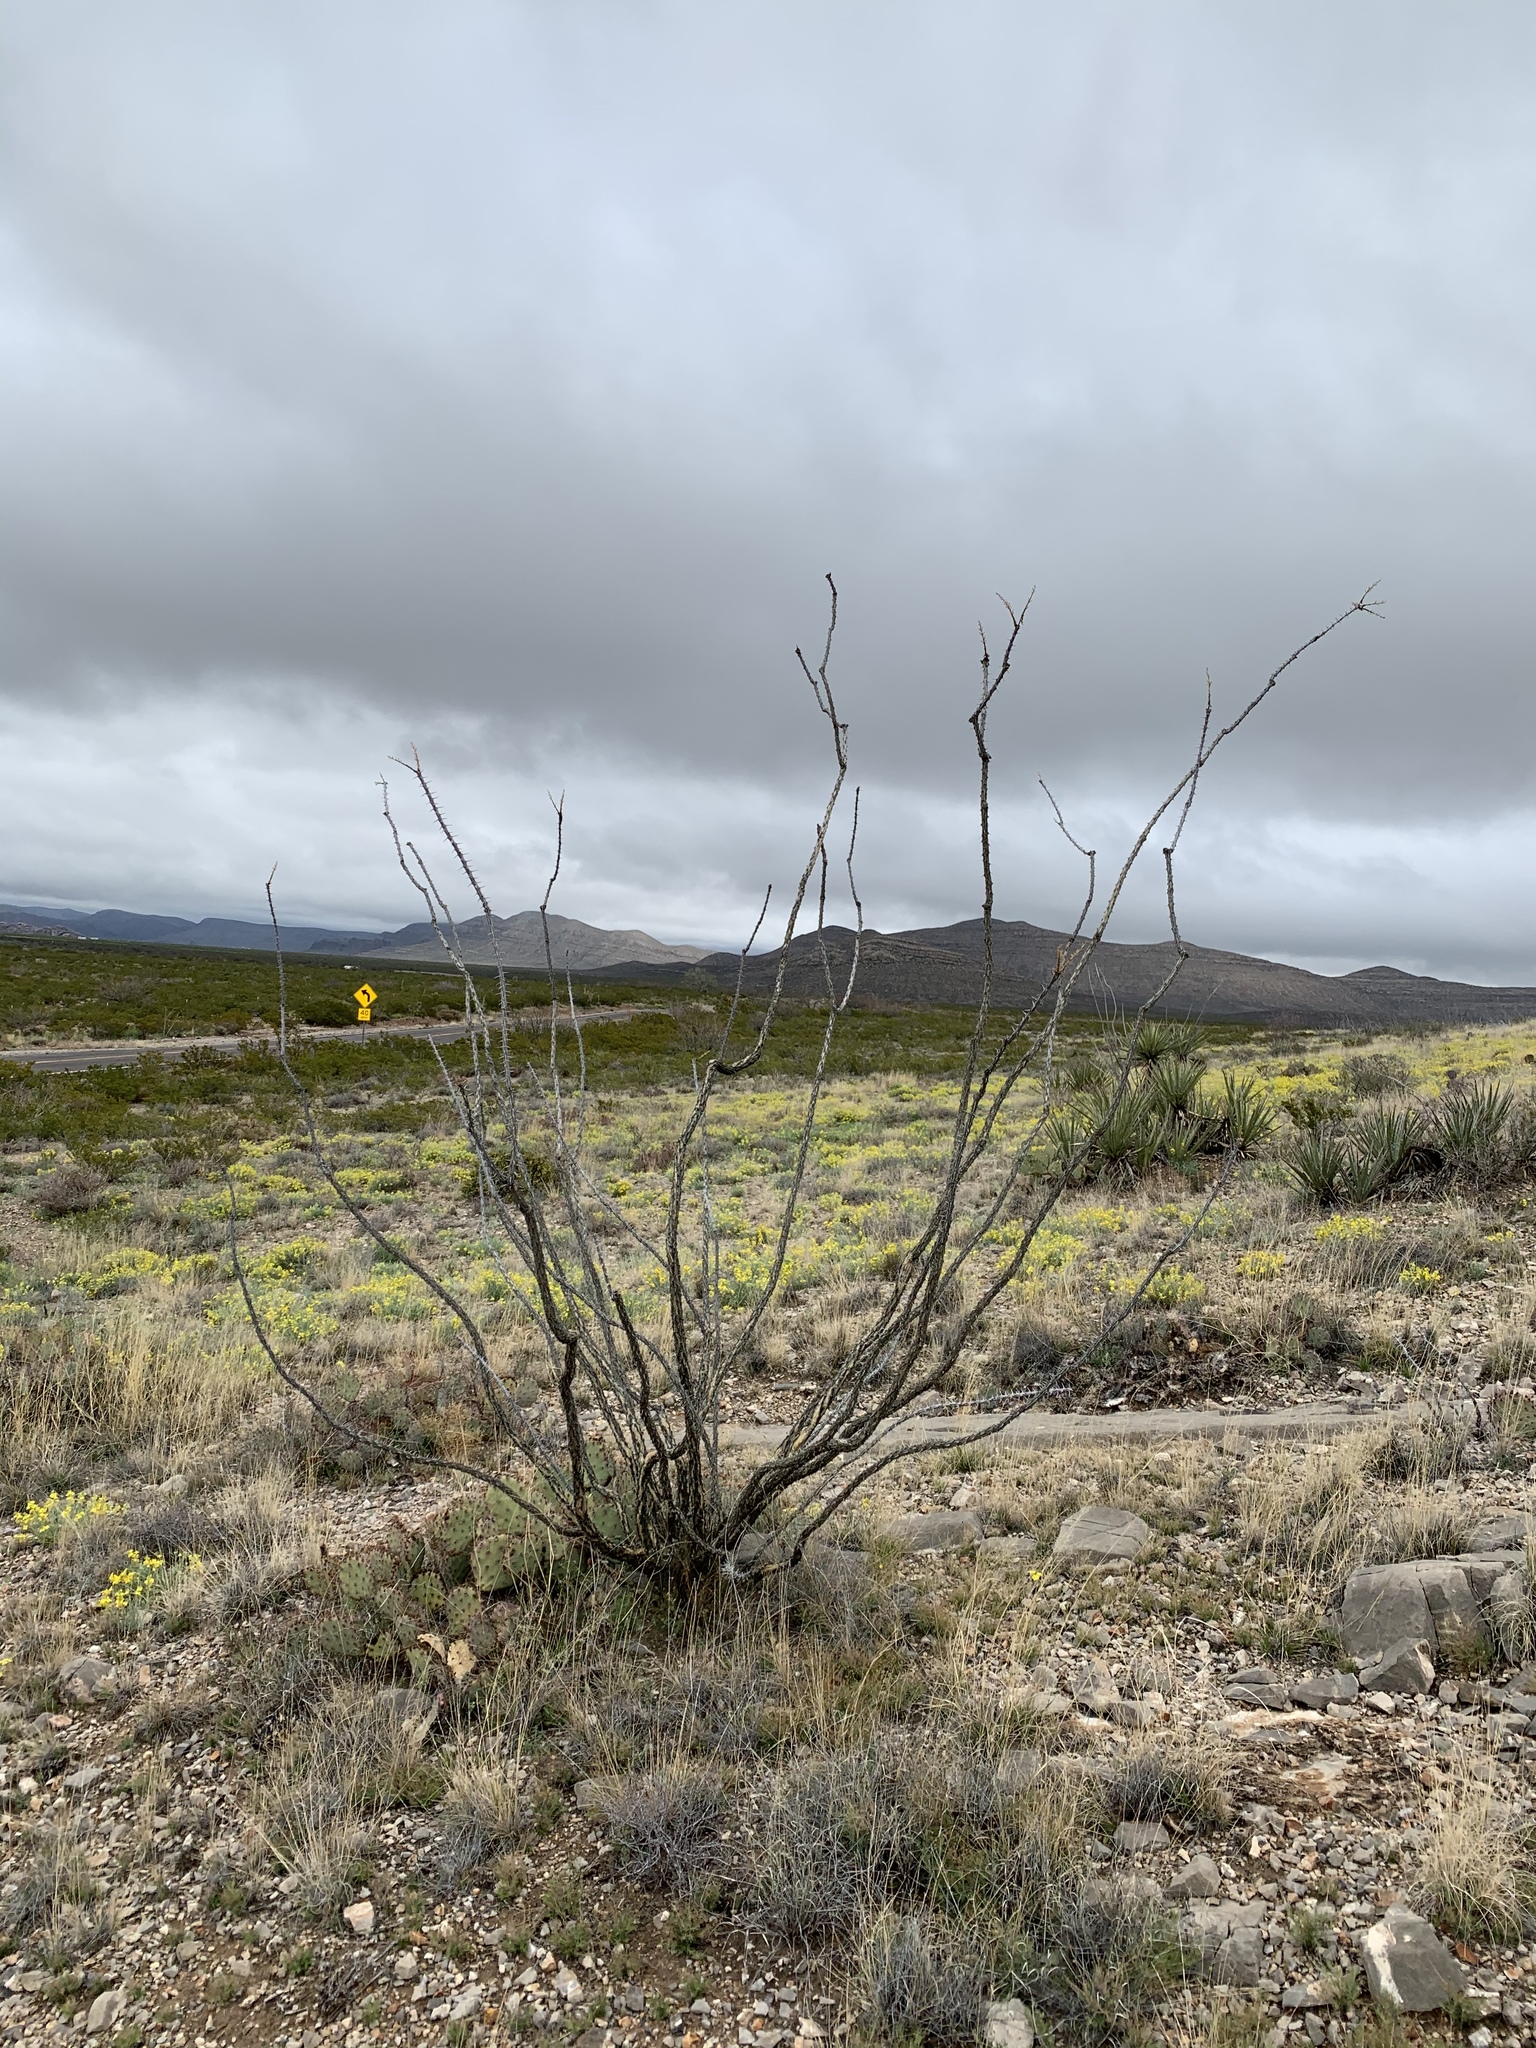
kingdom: Plantae
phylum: Tracheophyta
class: Magnoliopsida
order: Ericales
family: Fouquieriaceae
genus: Fouquieria
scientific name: Fouquieria splendens
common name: Vine-cactus
